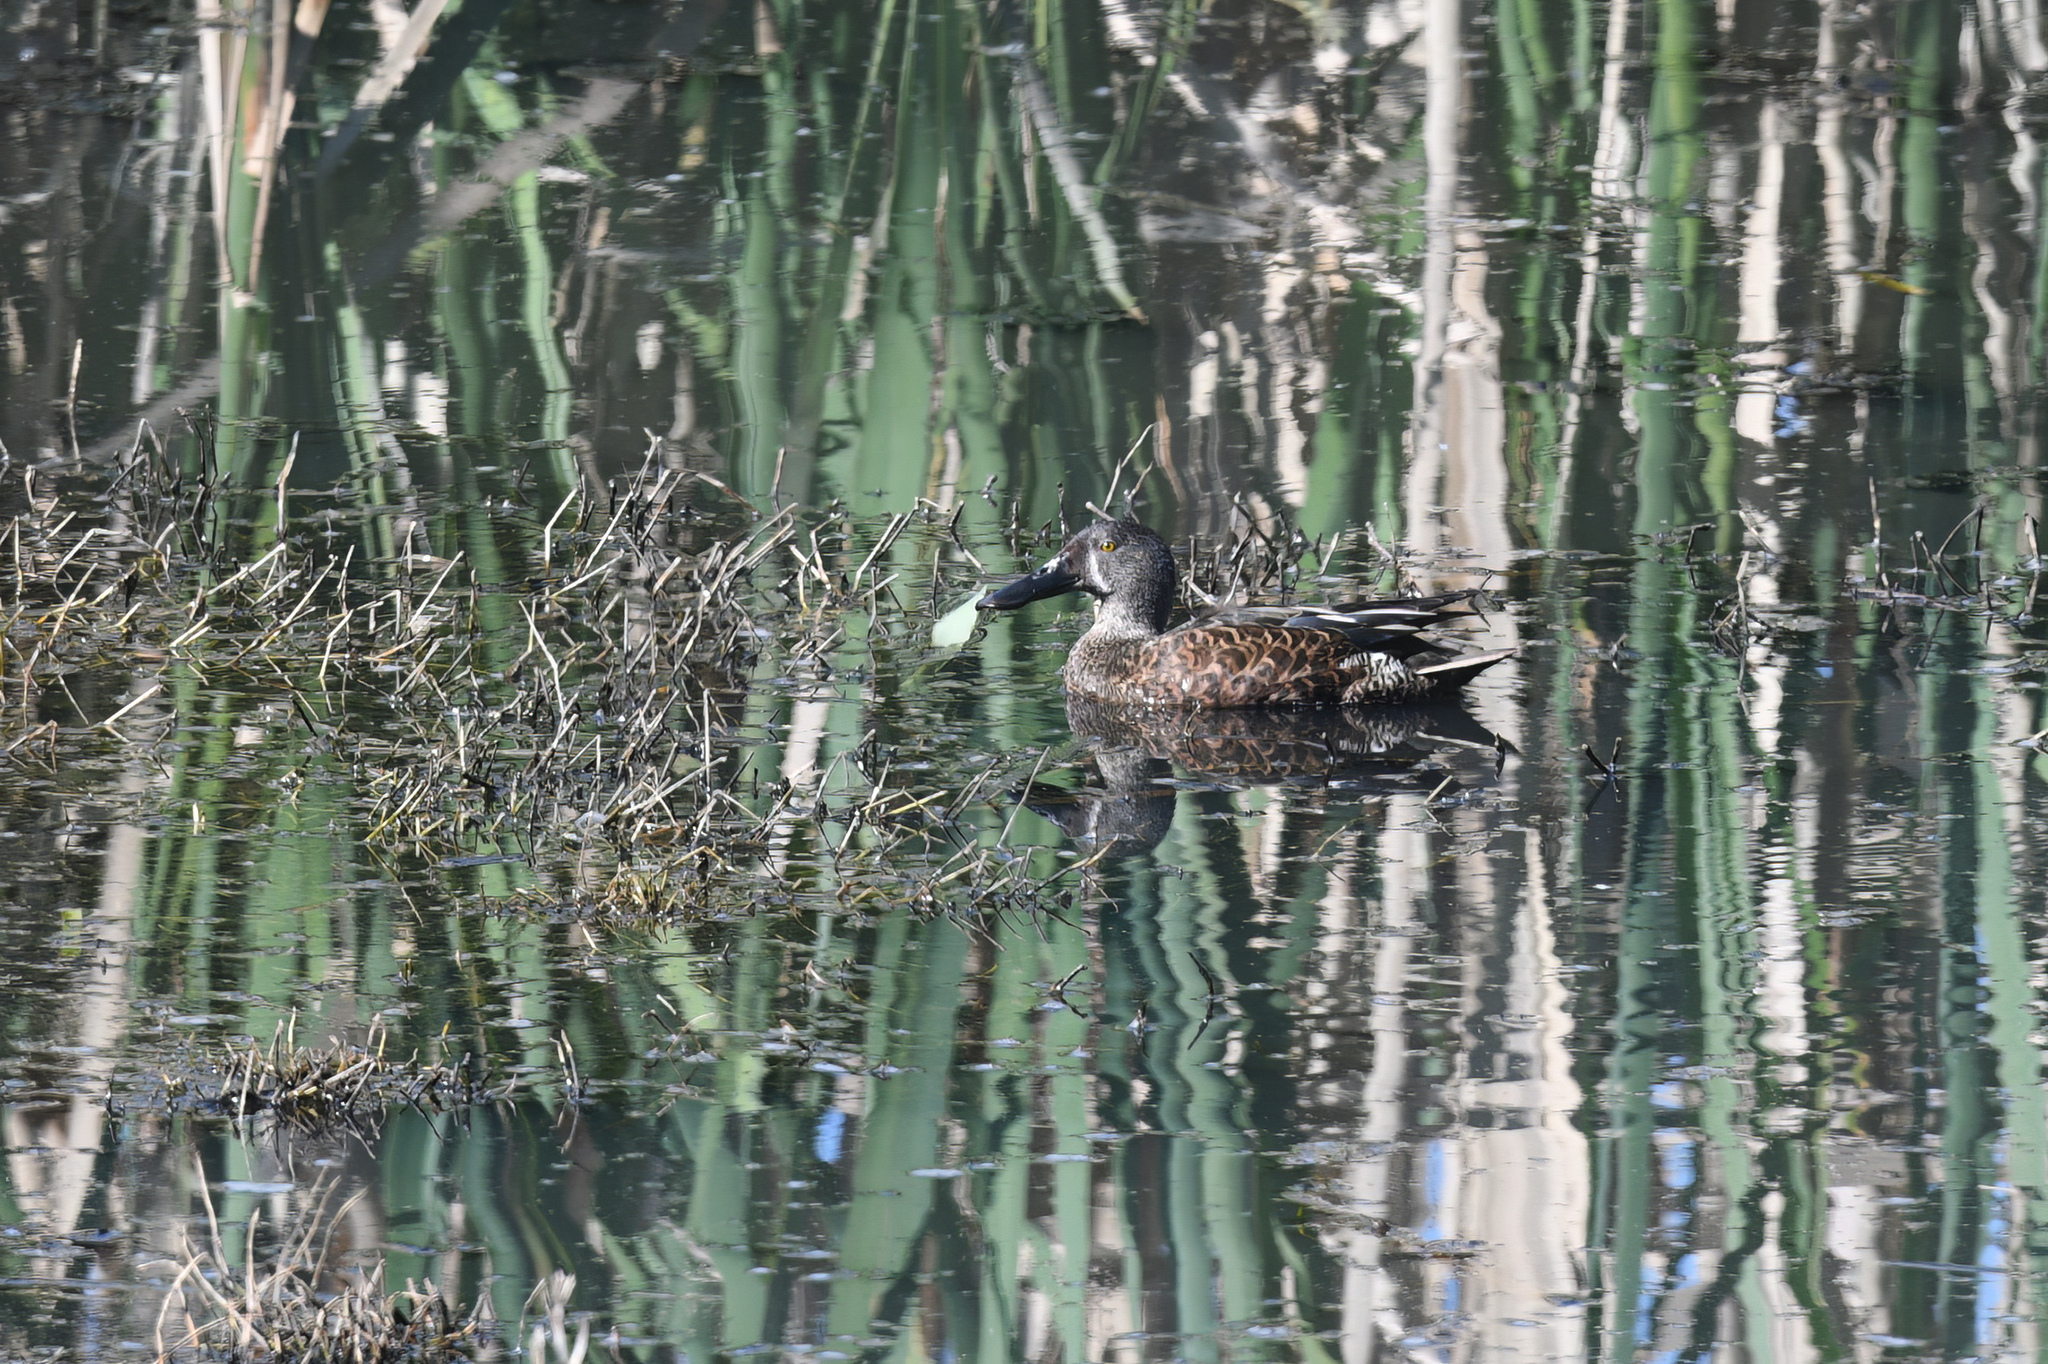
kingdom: Animalia
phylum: Chordata
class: Aves
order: Anseriformes
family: Anatidae
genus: Spatula
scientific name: Spatula rhynchotis
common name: Australian shoveler
